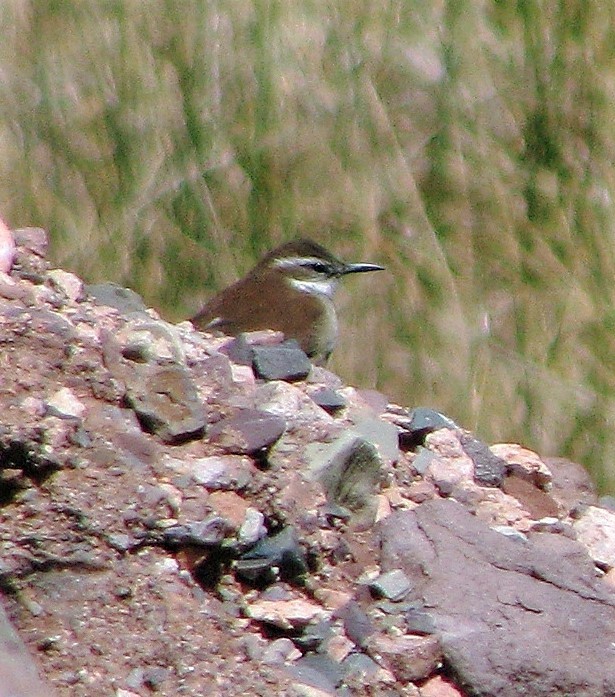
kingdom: Animalia
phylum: Chordata
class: Aves
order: Passeriformes
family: Furnariidae
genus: Cinclodes
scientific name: Cinclodes atacamensis
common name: White-winged cinclodes
